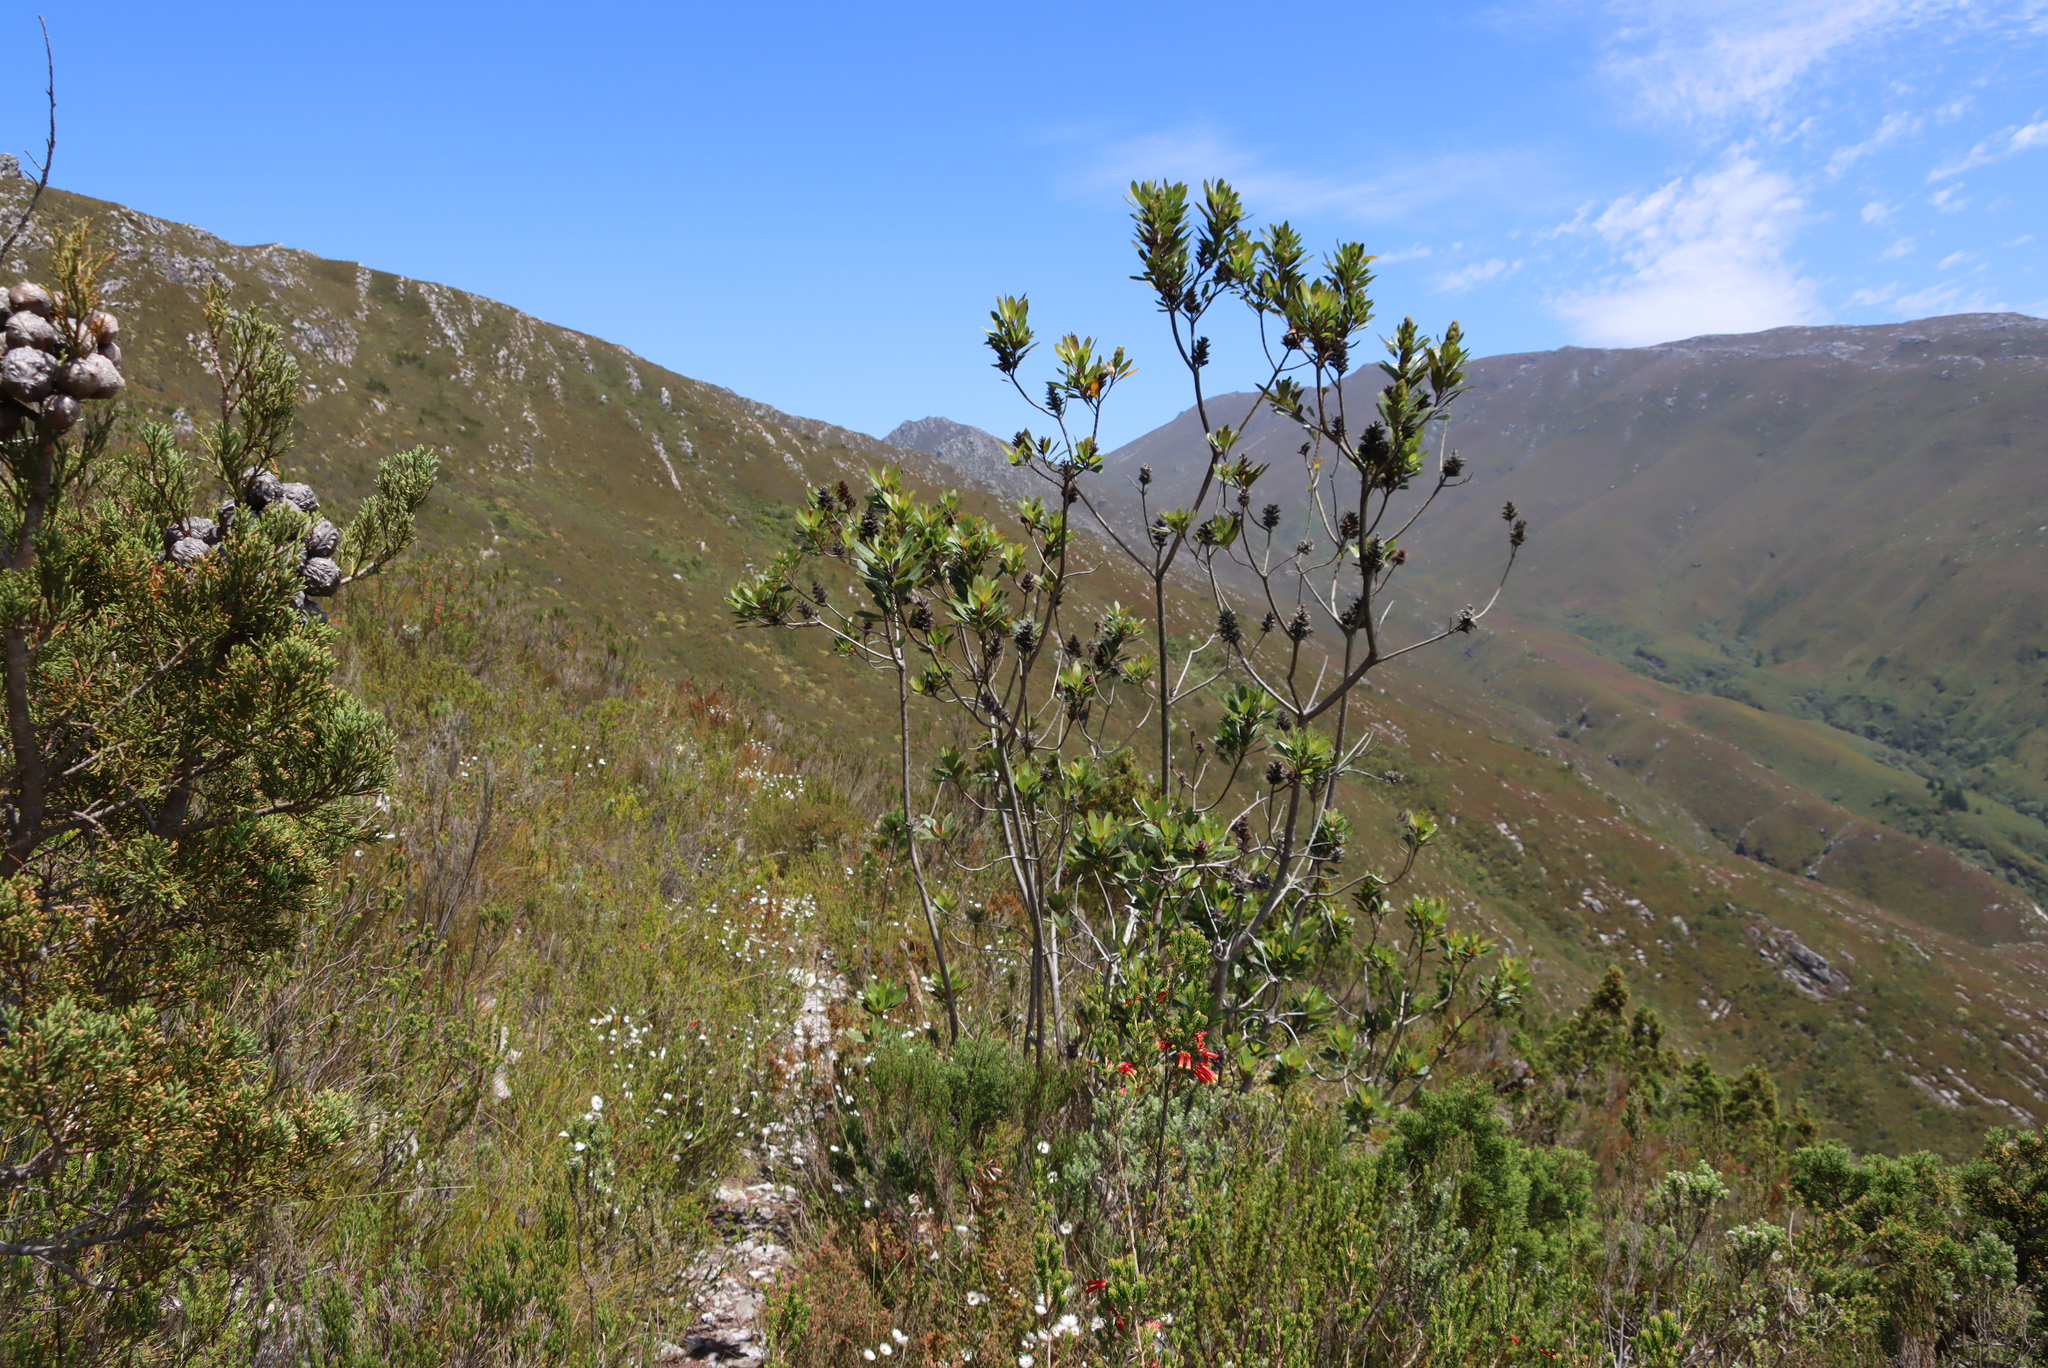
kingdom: Plantae
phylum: Tracheophyta
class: Magnoliopsida
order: Sapindales
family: Anacardiaceae
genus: Laurophyllus
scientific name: Laurophyllus capensis
